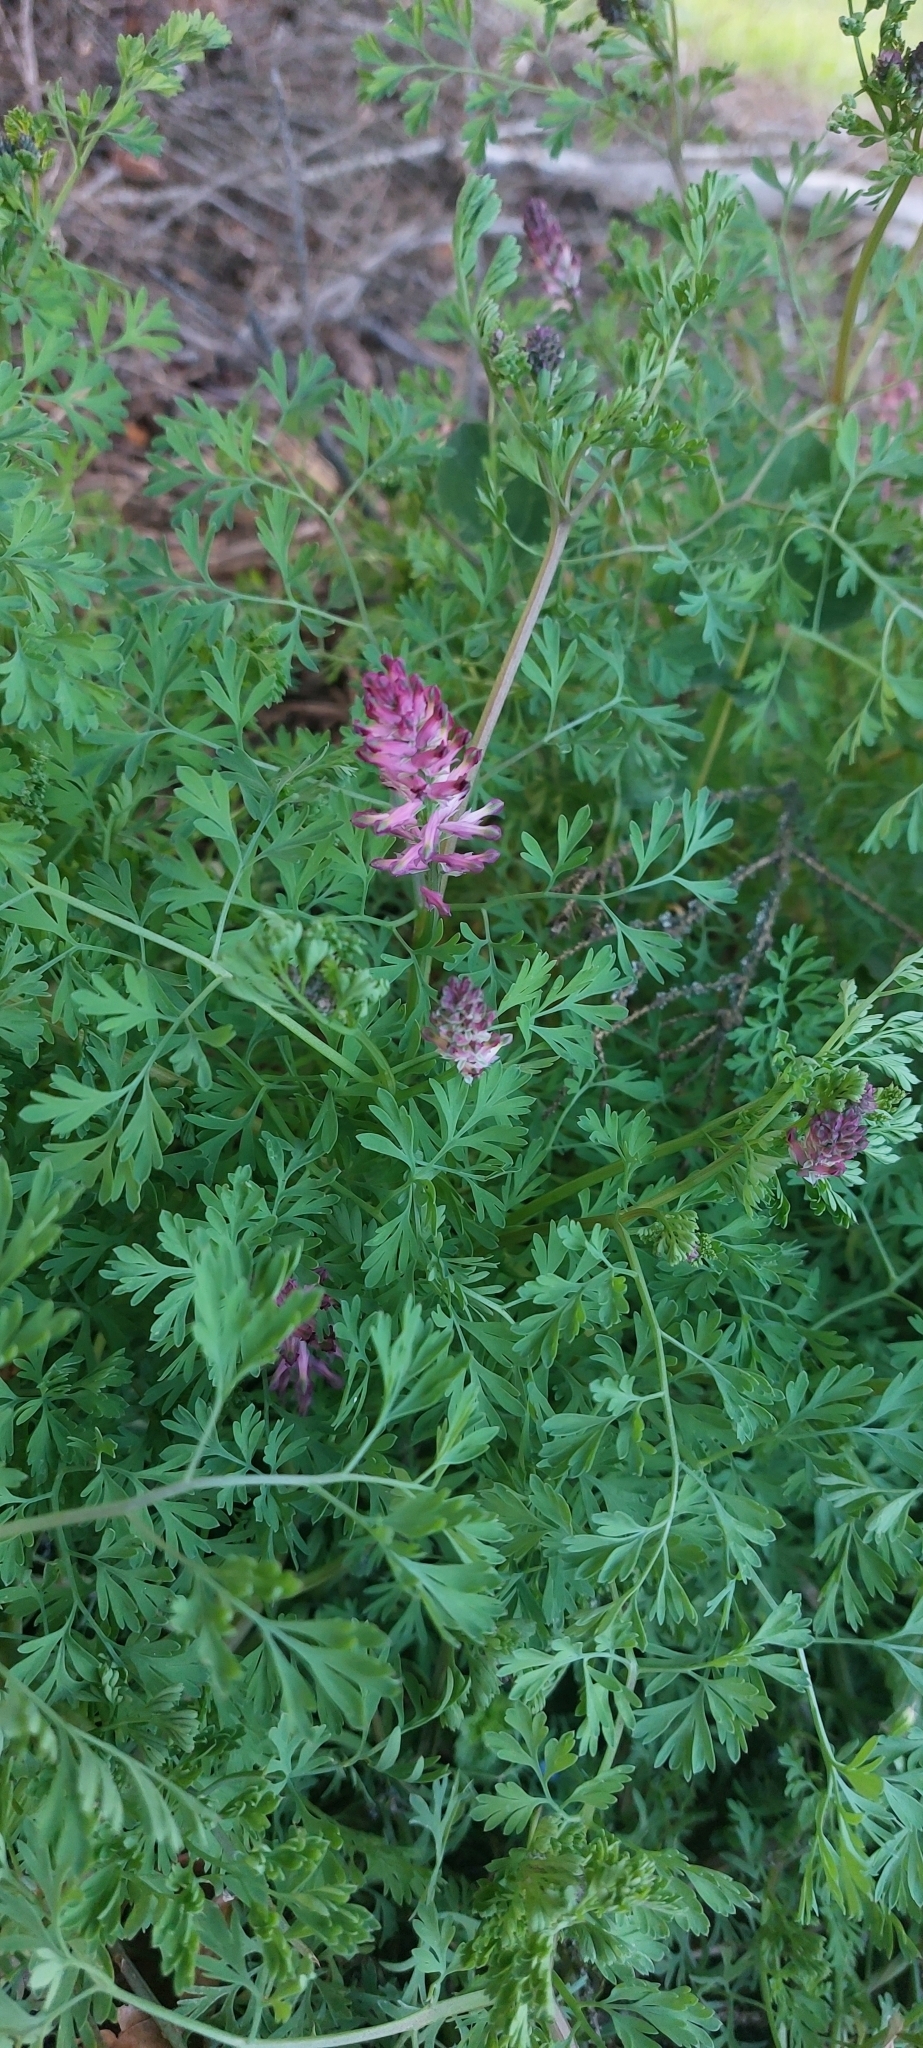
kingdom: Plantae
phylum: Tracheophyta
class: Magnoliopsida
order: Ranunculales
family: Papaveraceae
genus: Fumaria
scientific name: Fumaria officinalis
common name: Common fumitory
